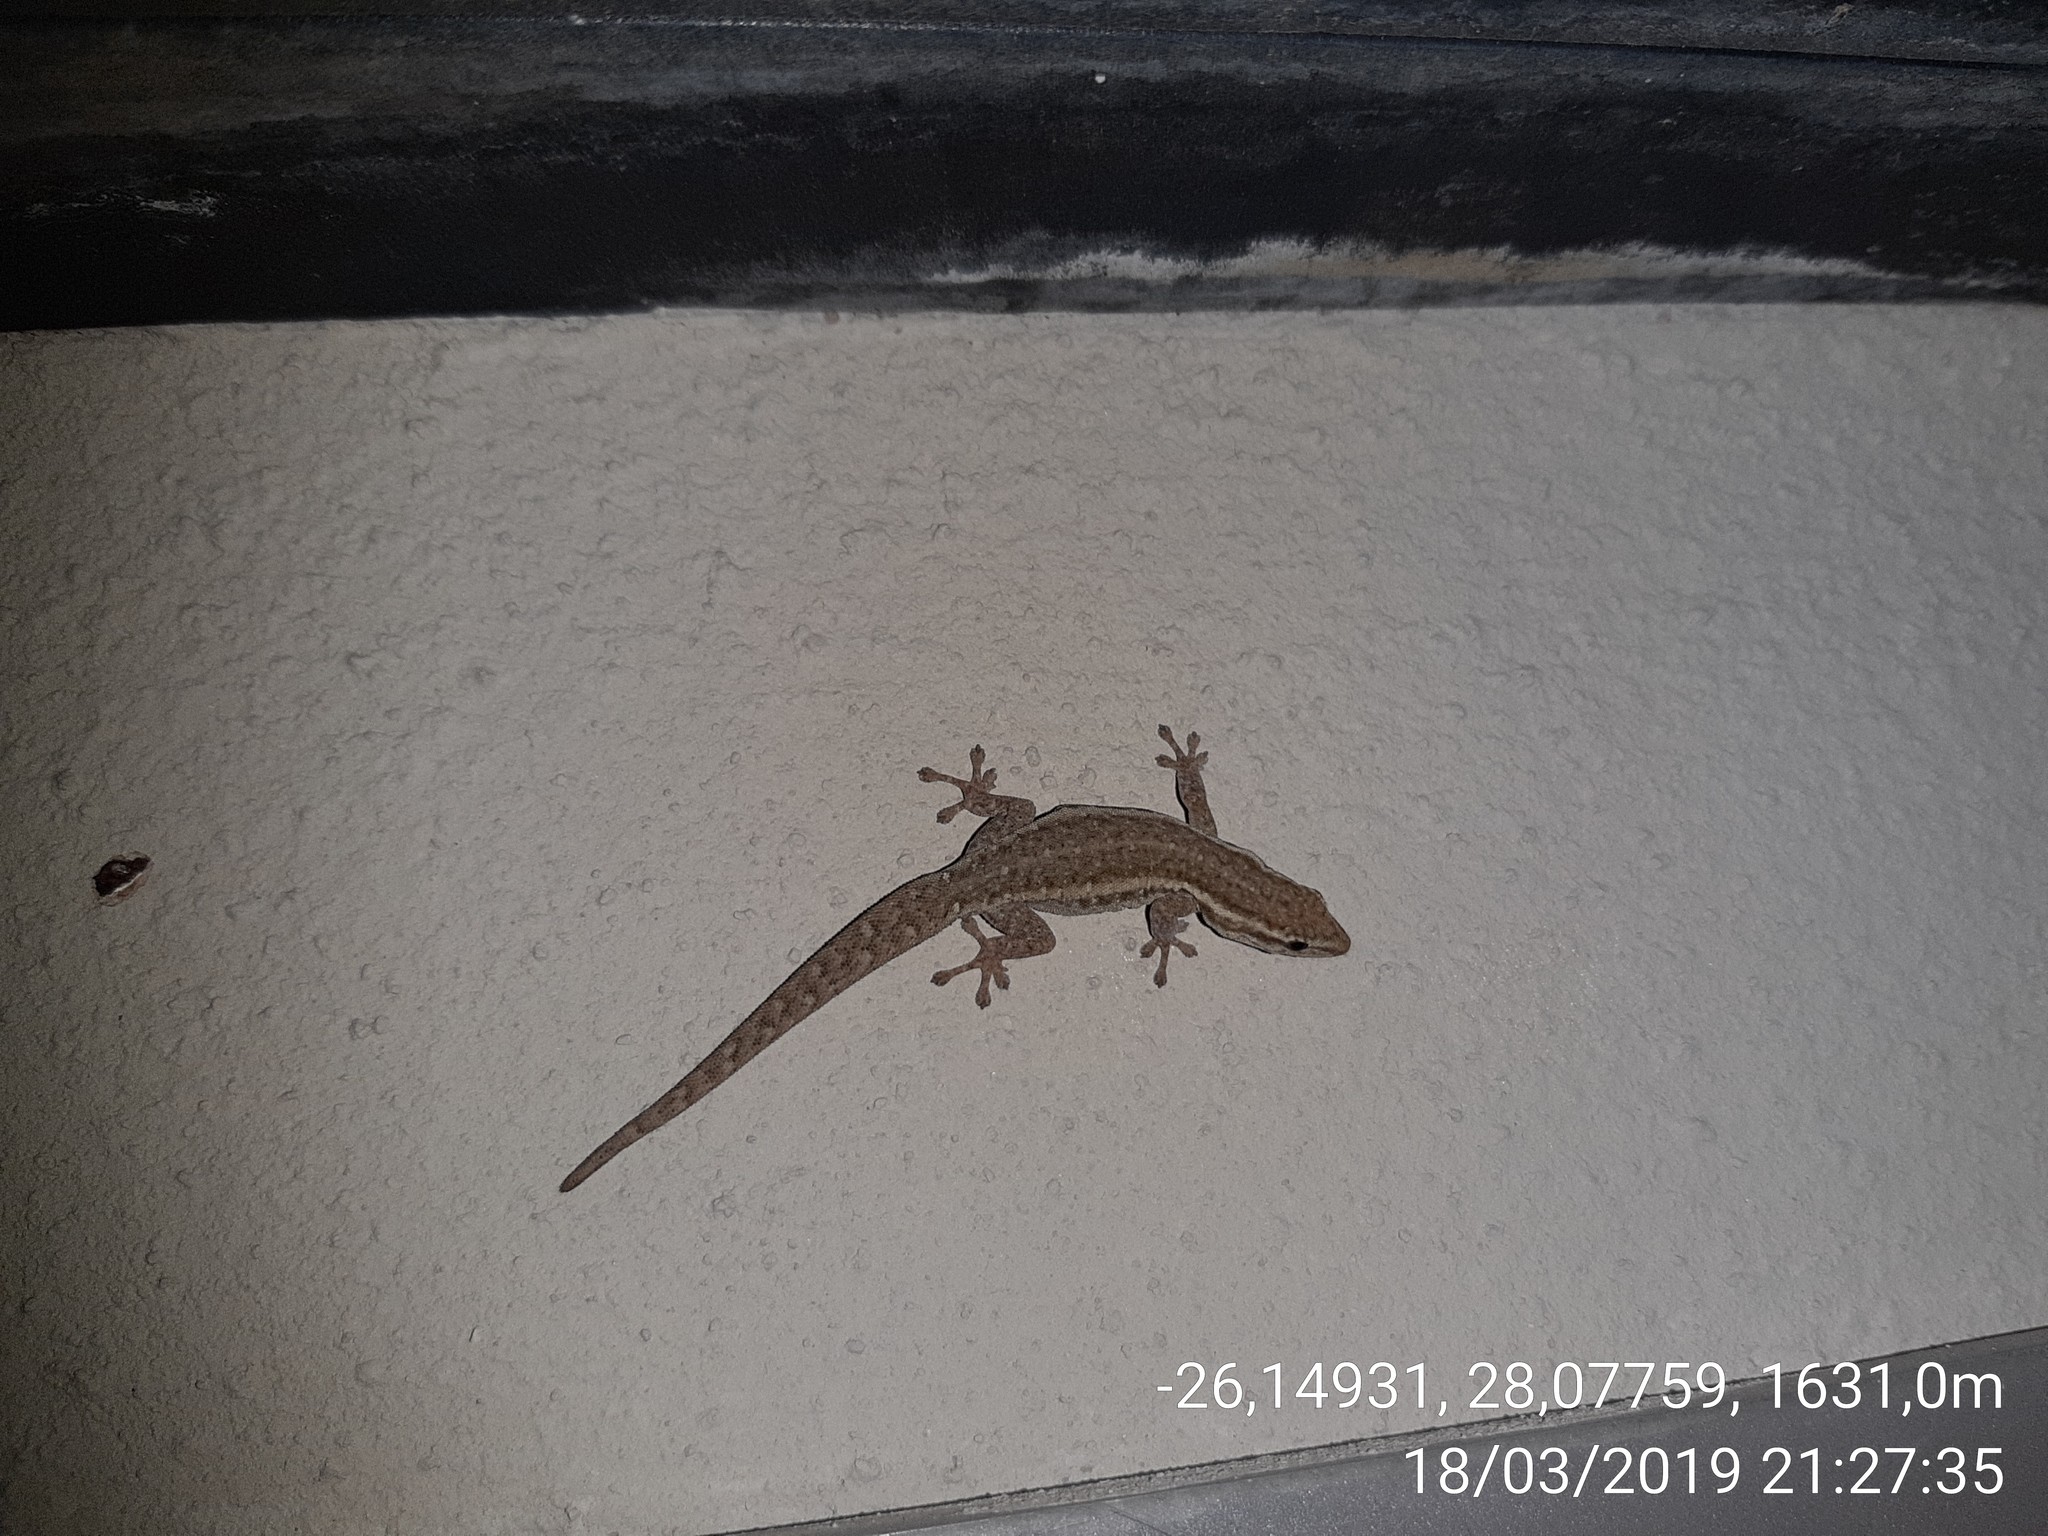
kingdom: Animalia
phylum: Chordata
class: Squamata
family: Gekkonidae
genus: Lygodactylus
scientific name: Lygodactylus capensis
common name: Cape dwarf gecko
